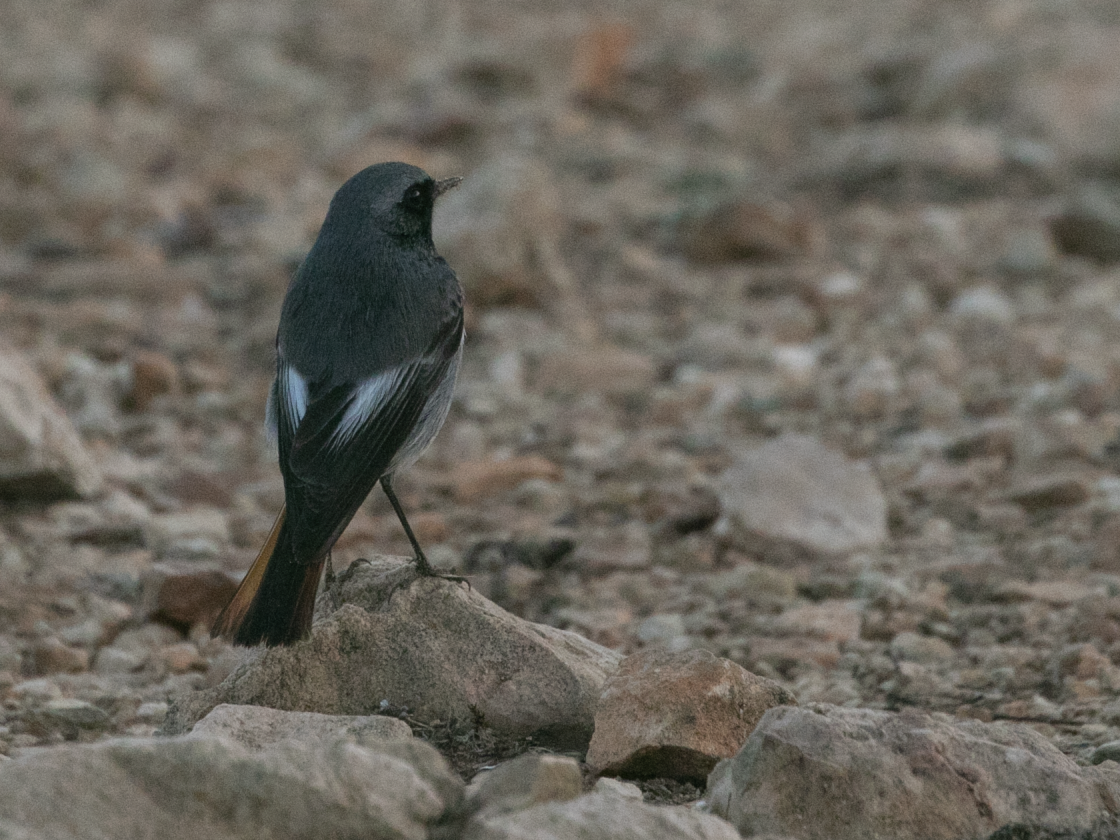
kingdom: Animalia
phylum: Chordata
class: Aves
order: Passeriformes
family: Muscicapidae
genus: Phoenicurus
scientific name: Phoenicurus ochruros
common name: Black redstart
